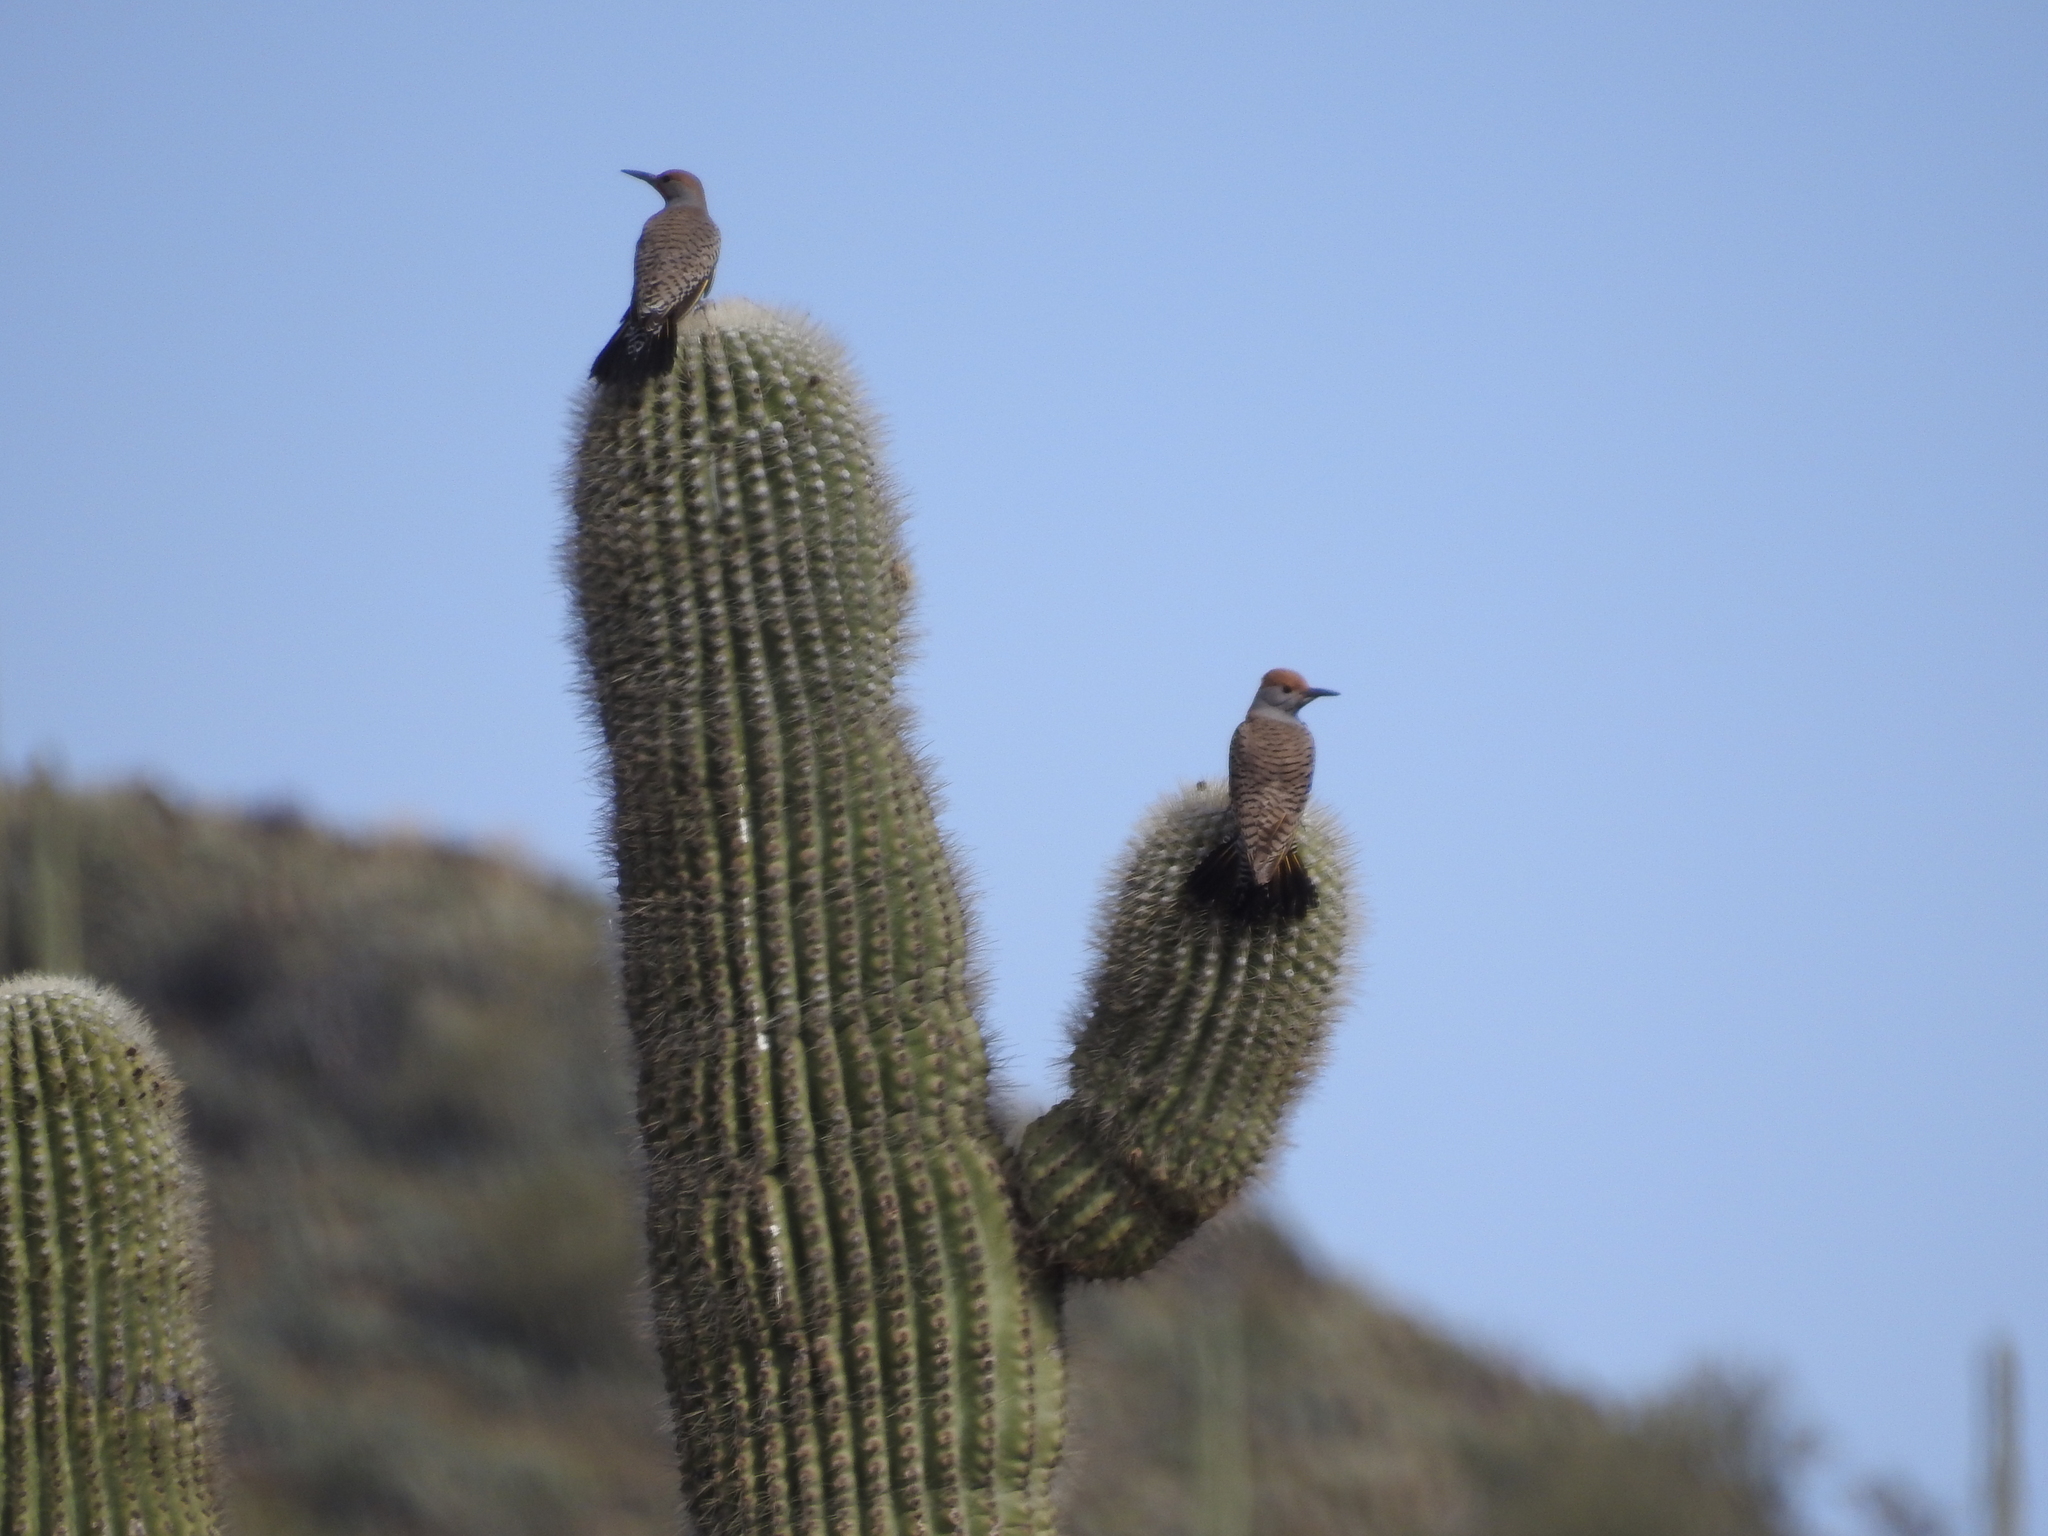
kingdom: Animalia
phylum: Chordata
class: Aves
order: Piciformes
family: Picidae
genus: Colaptes
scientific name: Colaptes chrysoides
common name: Gilded flicker
